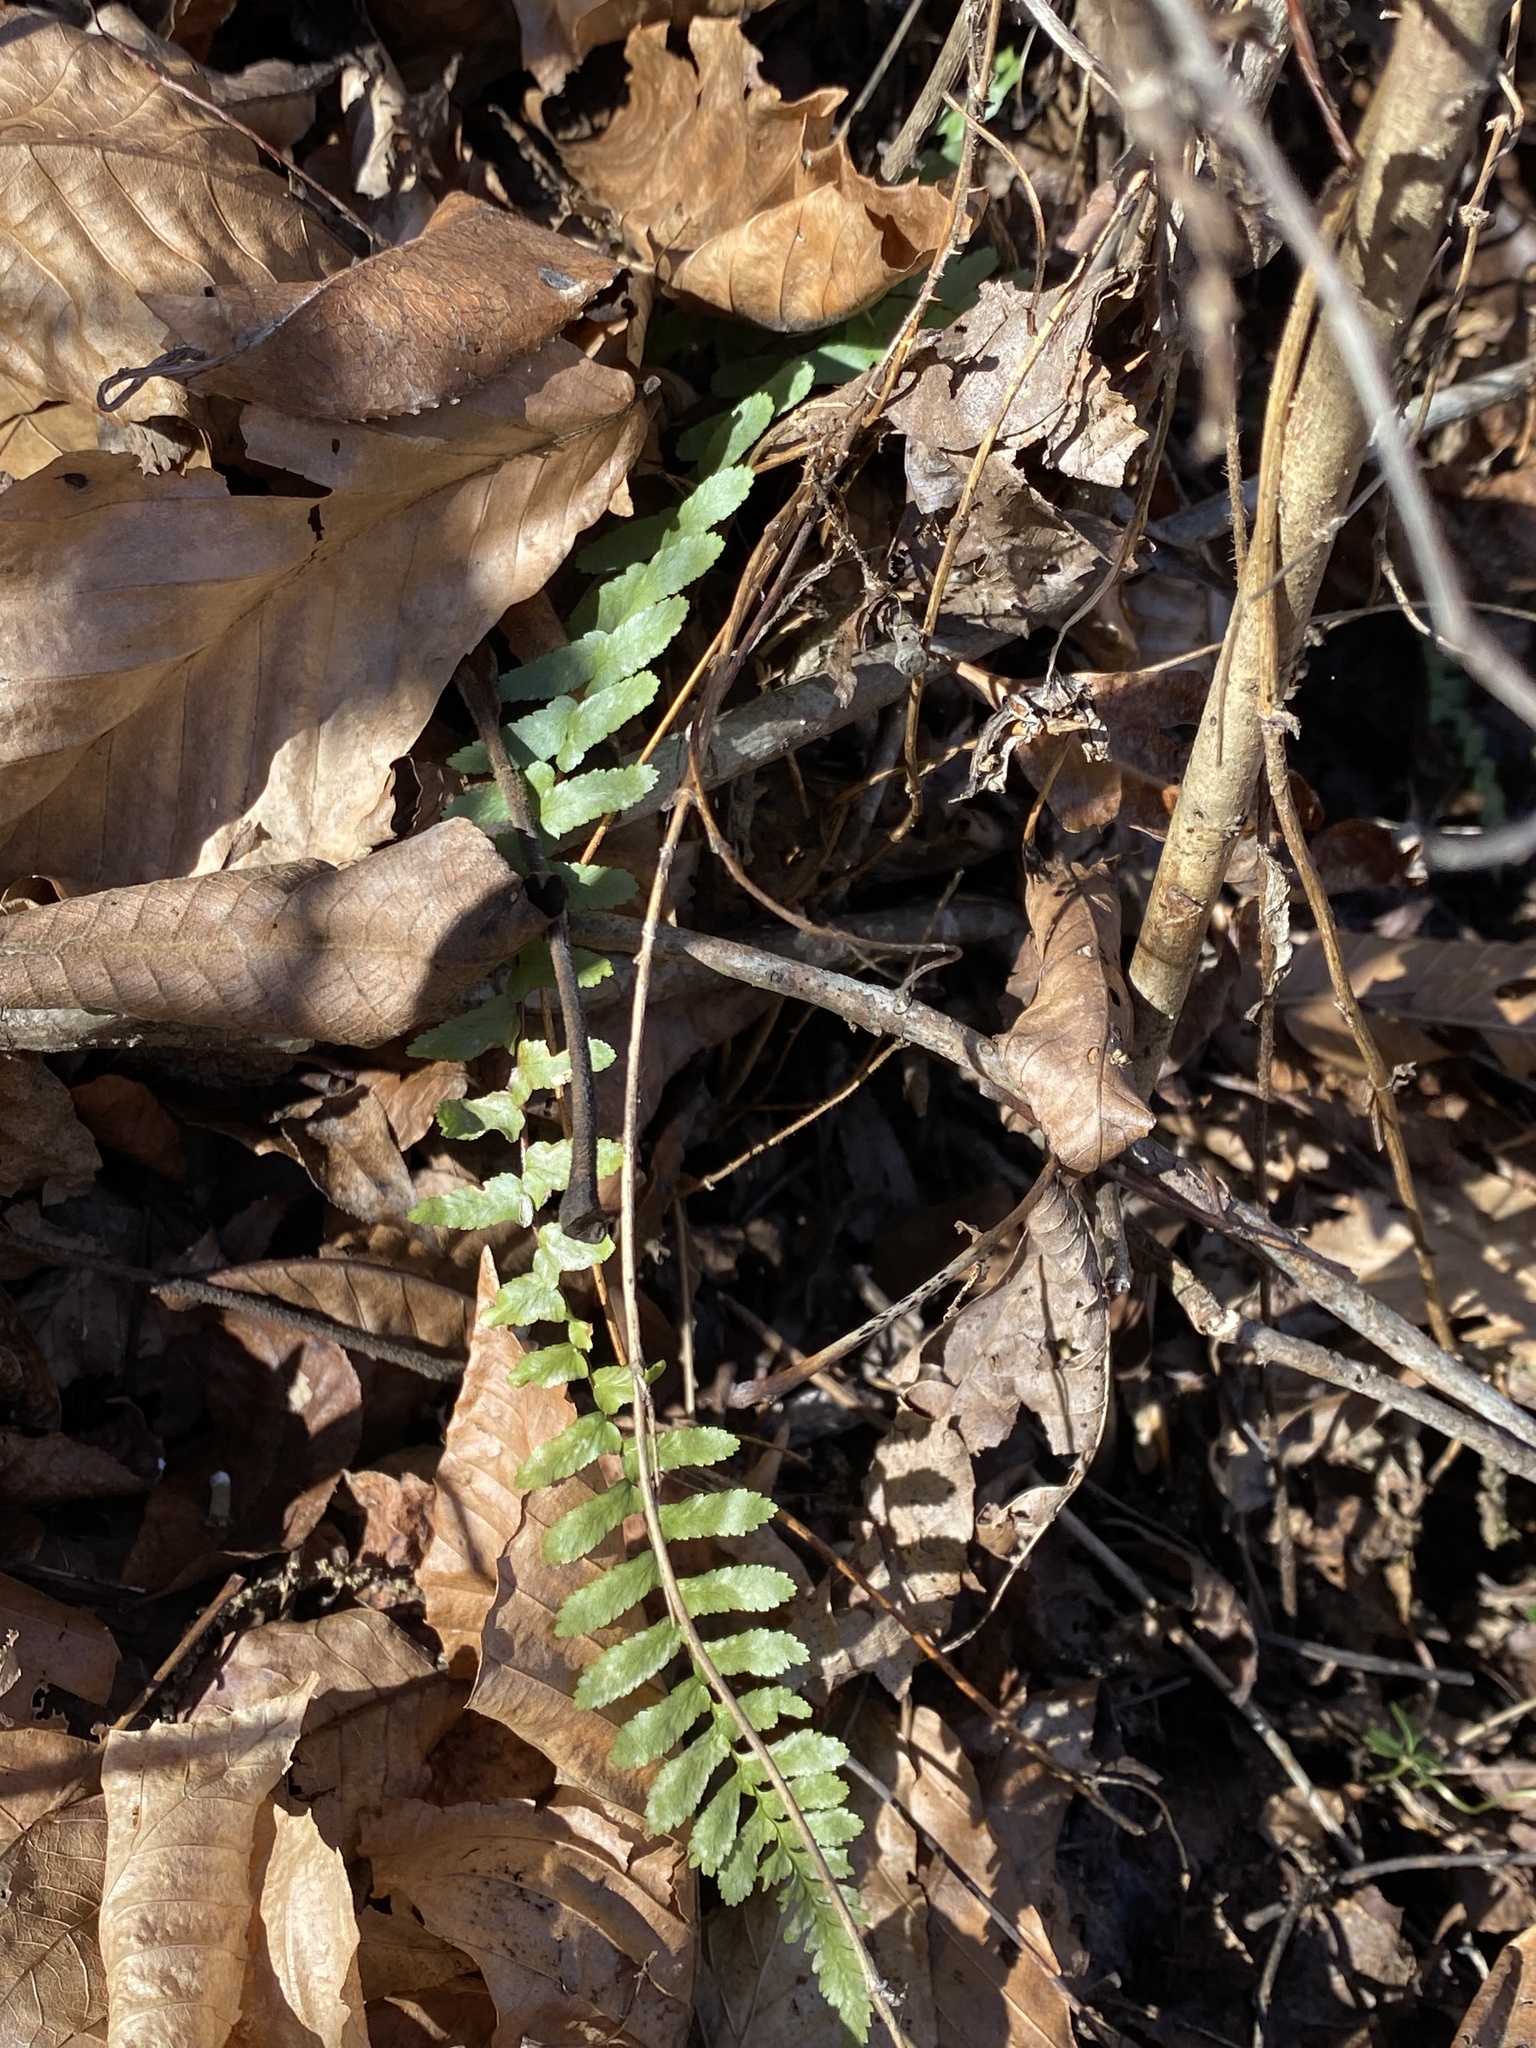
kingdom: Plantae
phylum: Tracheophyta
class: Polypodiopsida
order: Polypodiales
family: Aspleniaceae
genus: Asplenium
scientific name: Asplenium platyneuron
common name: Ebony spleenwort
